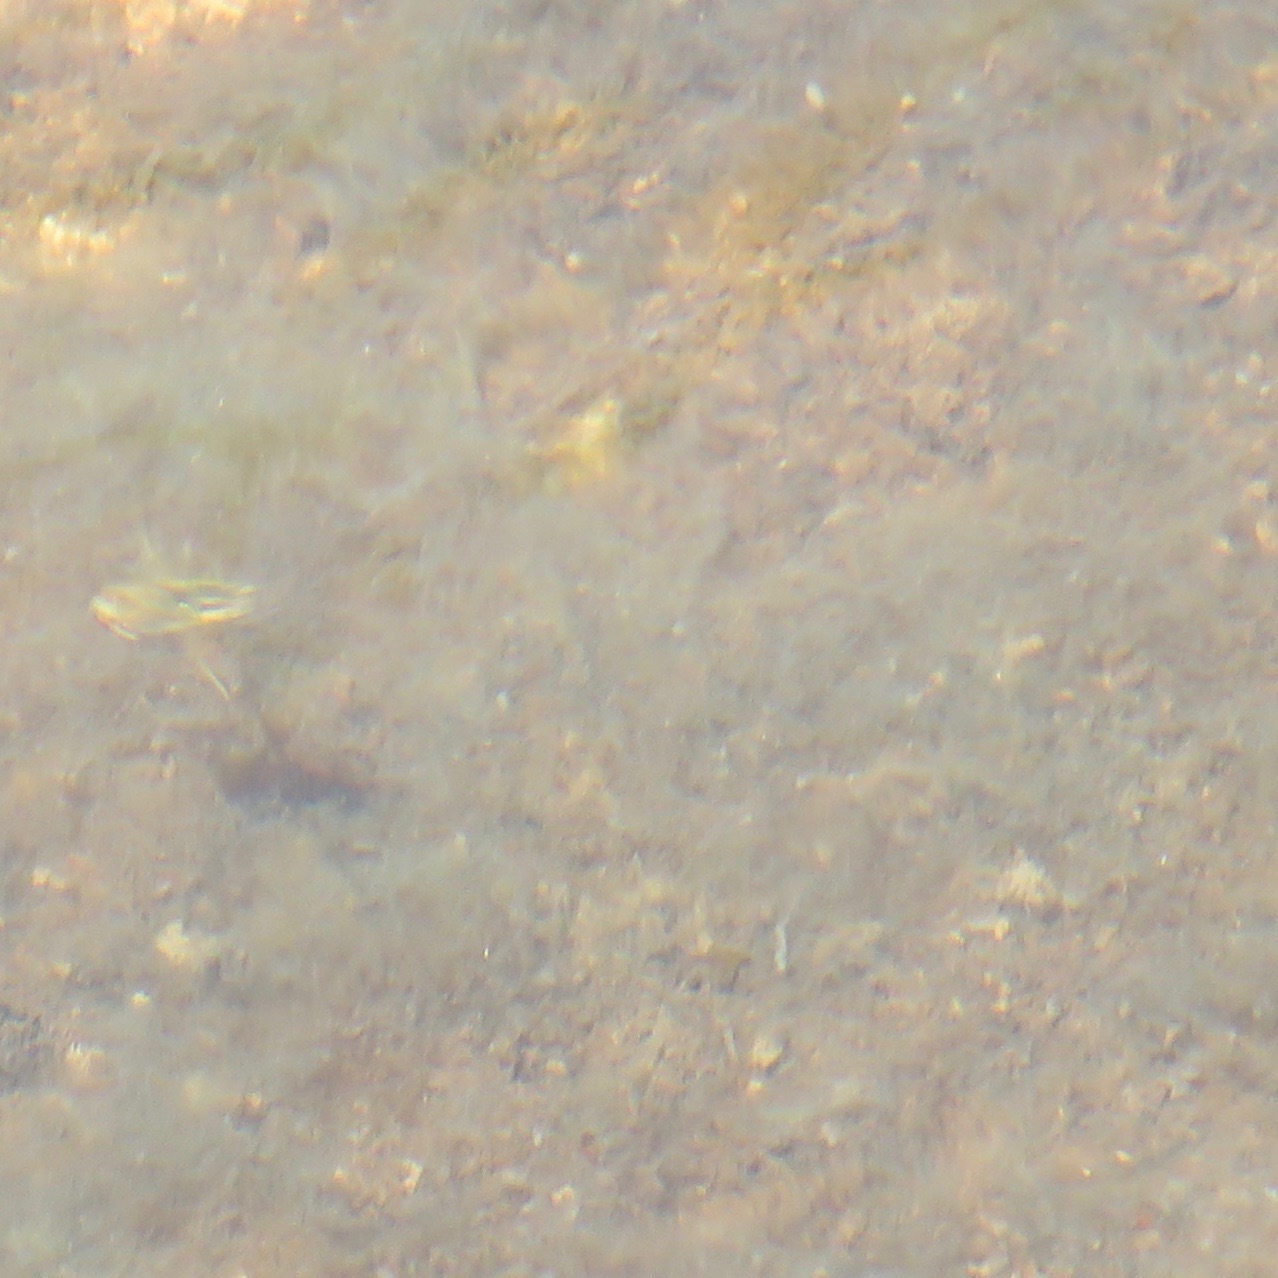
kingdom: Animalia
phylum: Chordata
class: Amphibia
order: Anura
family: Hylidae
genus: Pseudacris
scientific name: Pseudacris regilla
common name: Pacific chorus frog
